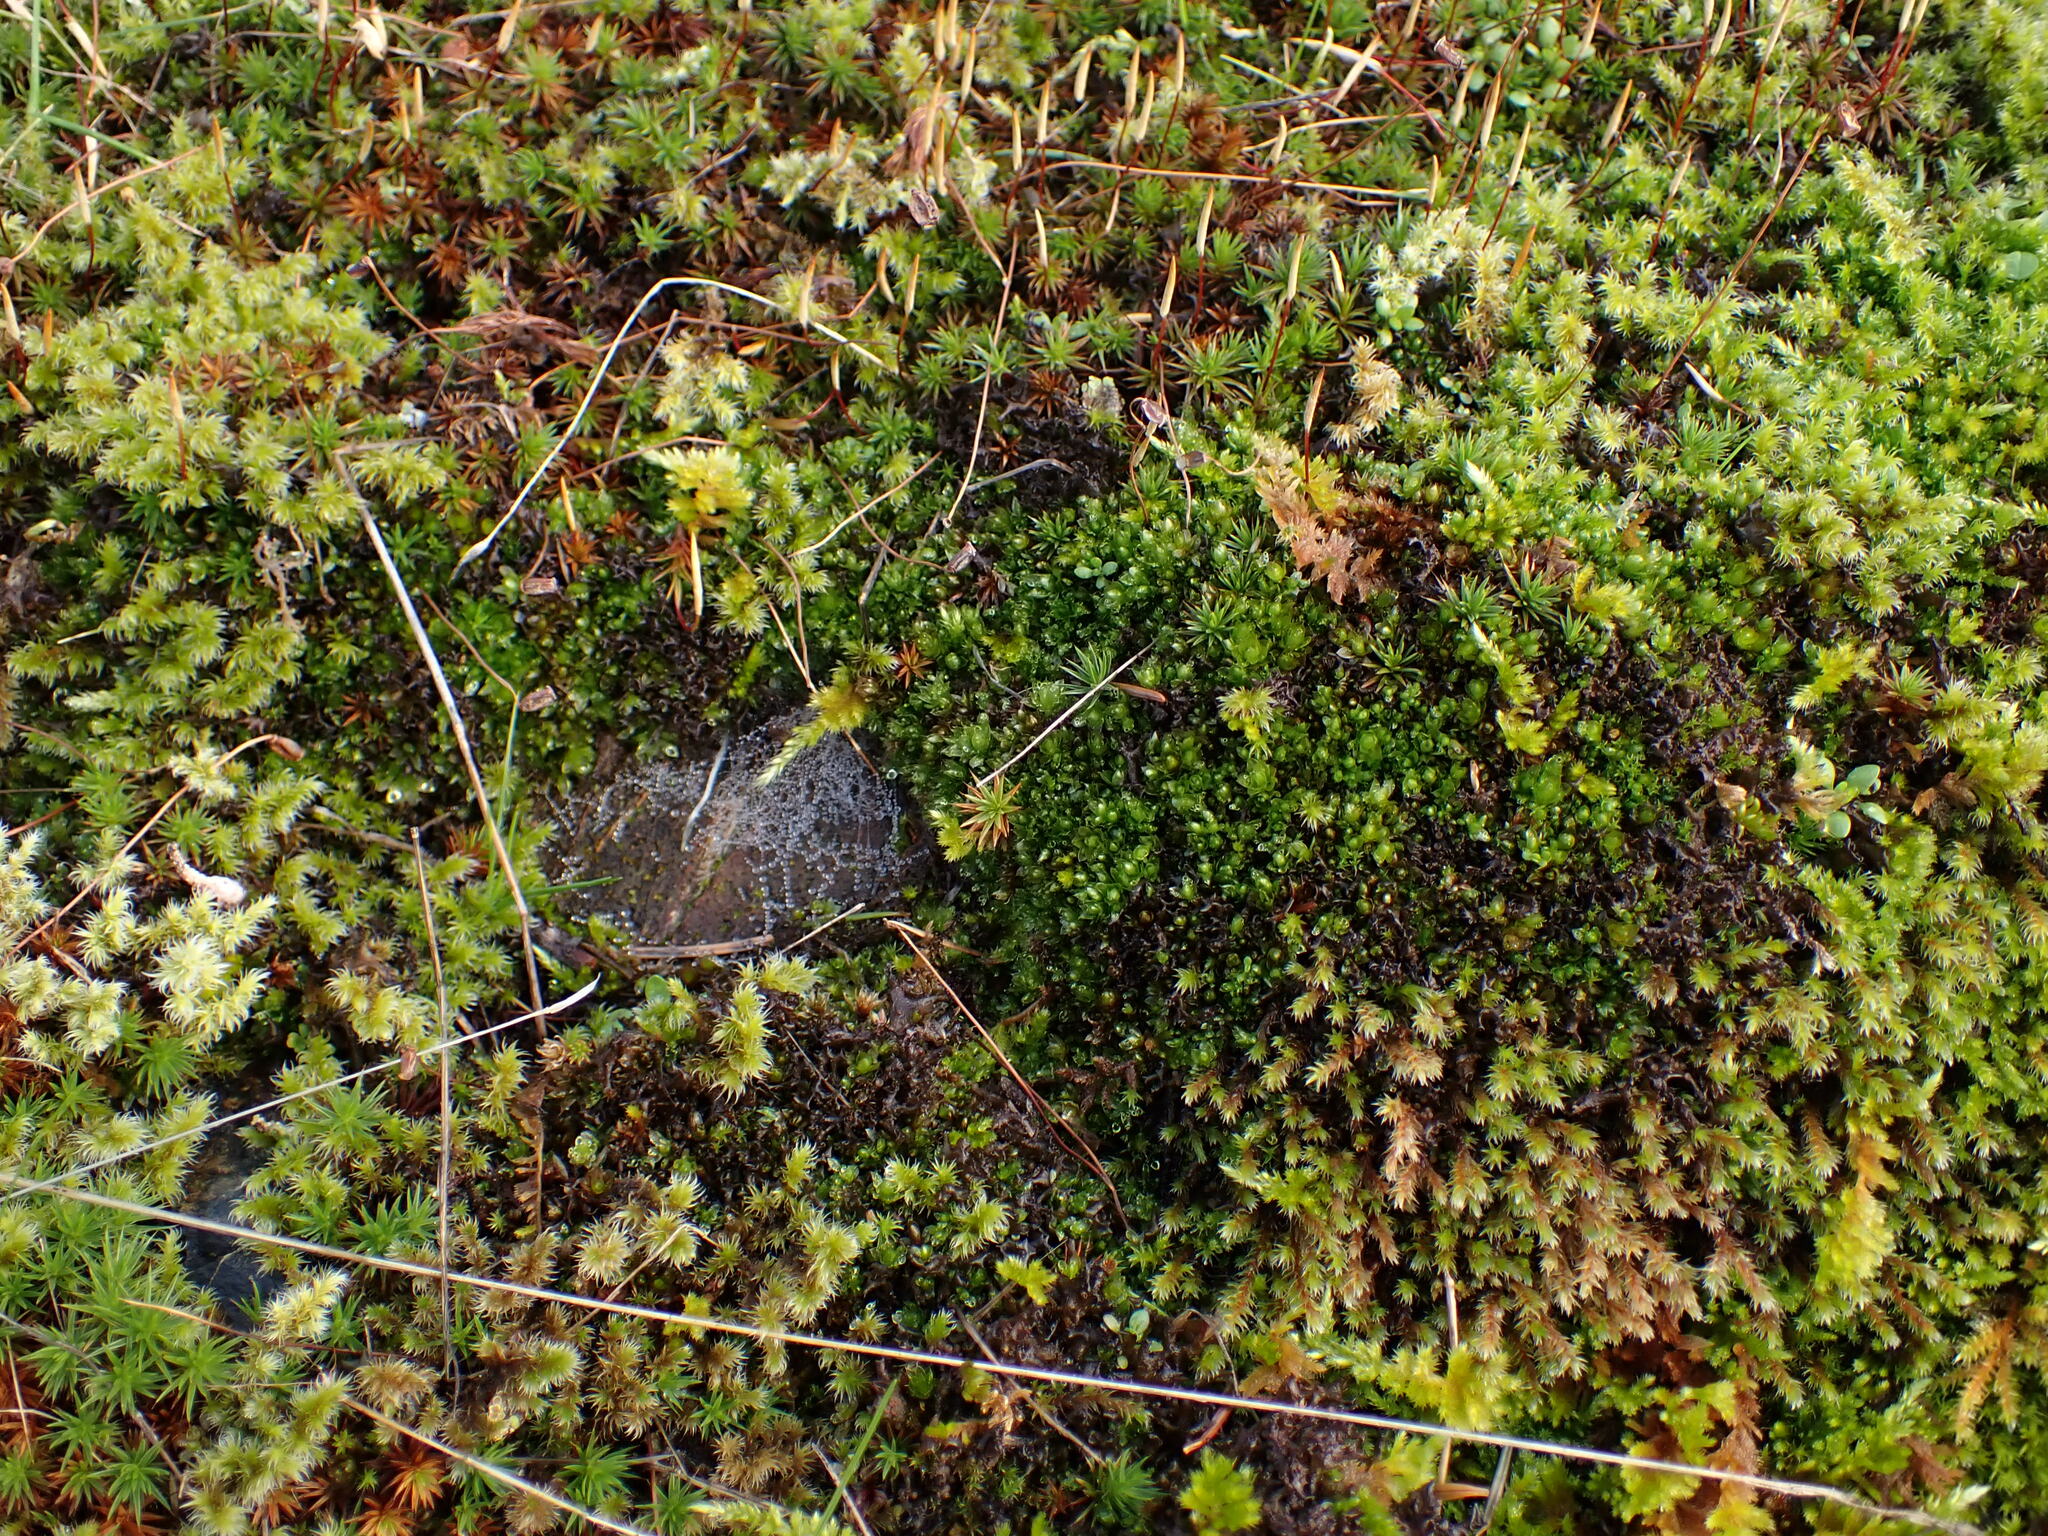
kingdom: Plantae
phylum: Bryophyta
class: Bryopsida
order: Bryales
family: Bryaceae
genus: Rosulabryum
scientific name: Rosulabryum capillare
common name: Capillary thread-moss
